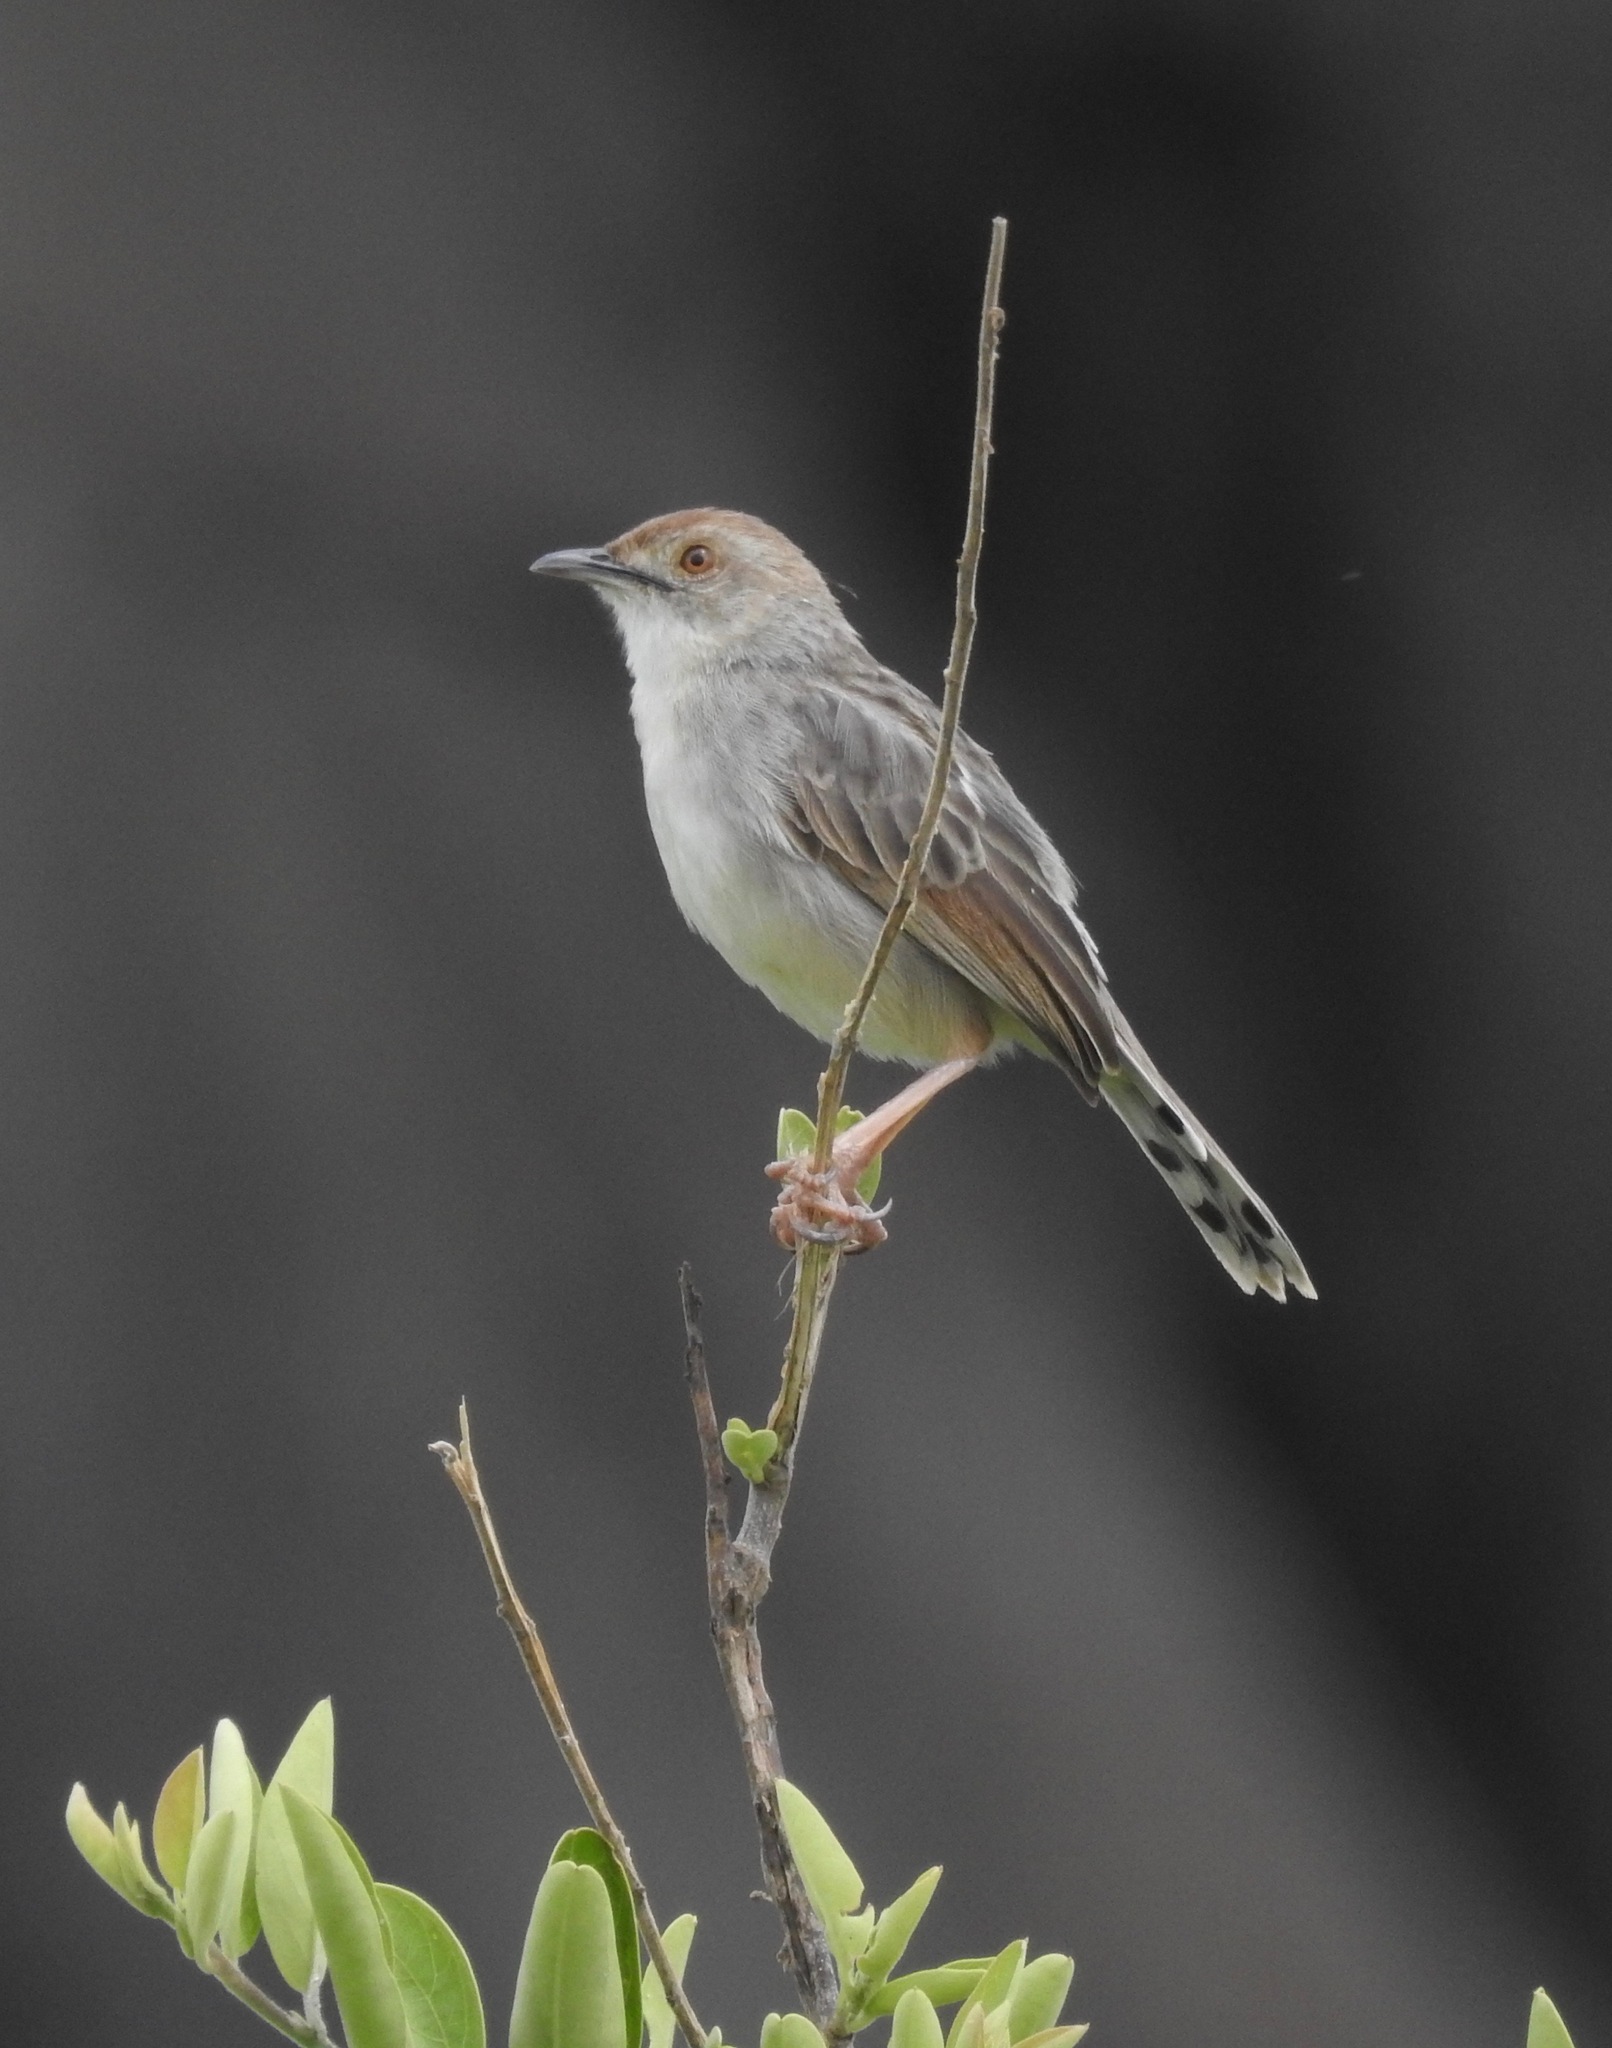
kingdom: Animalia
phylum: Chordata
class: Aves
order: Passeriformes
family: Cisticolidae
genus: Cisticola
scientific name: Cisticola chiniana
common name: Rattling cisticola
